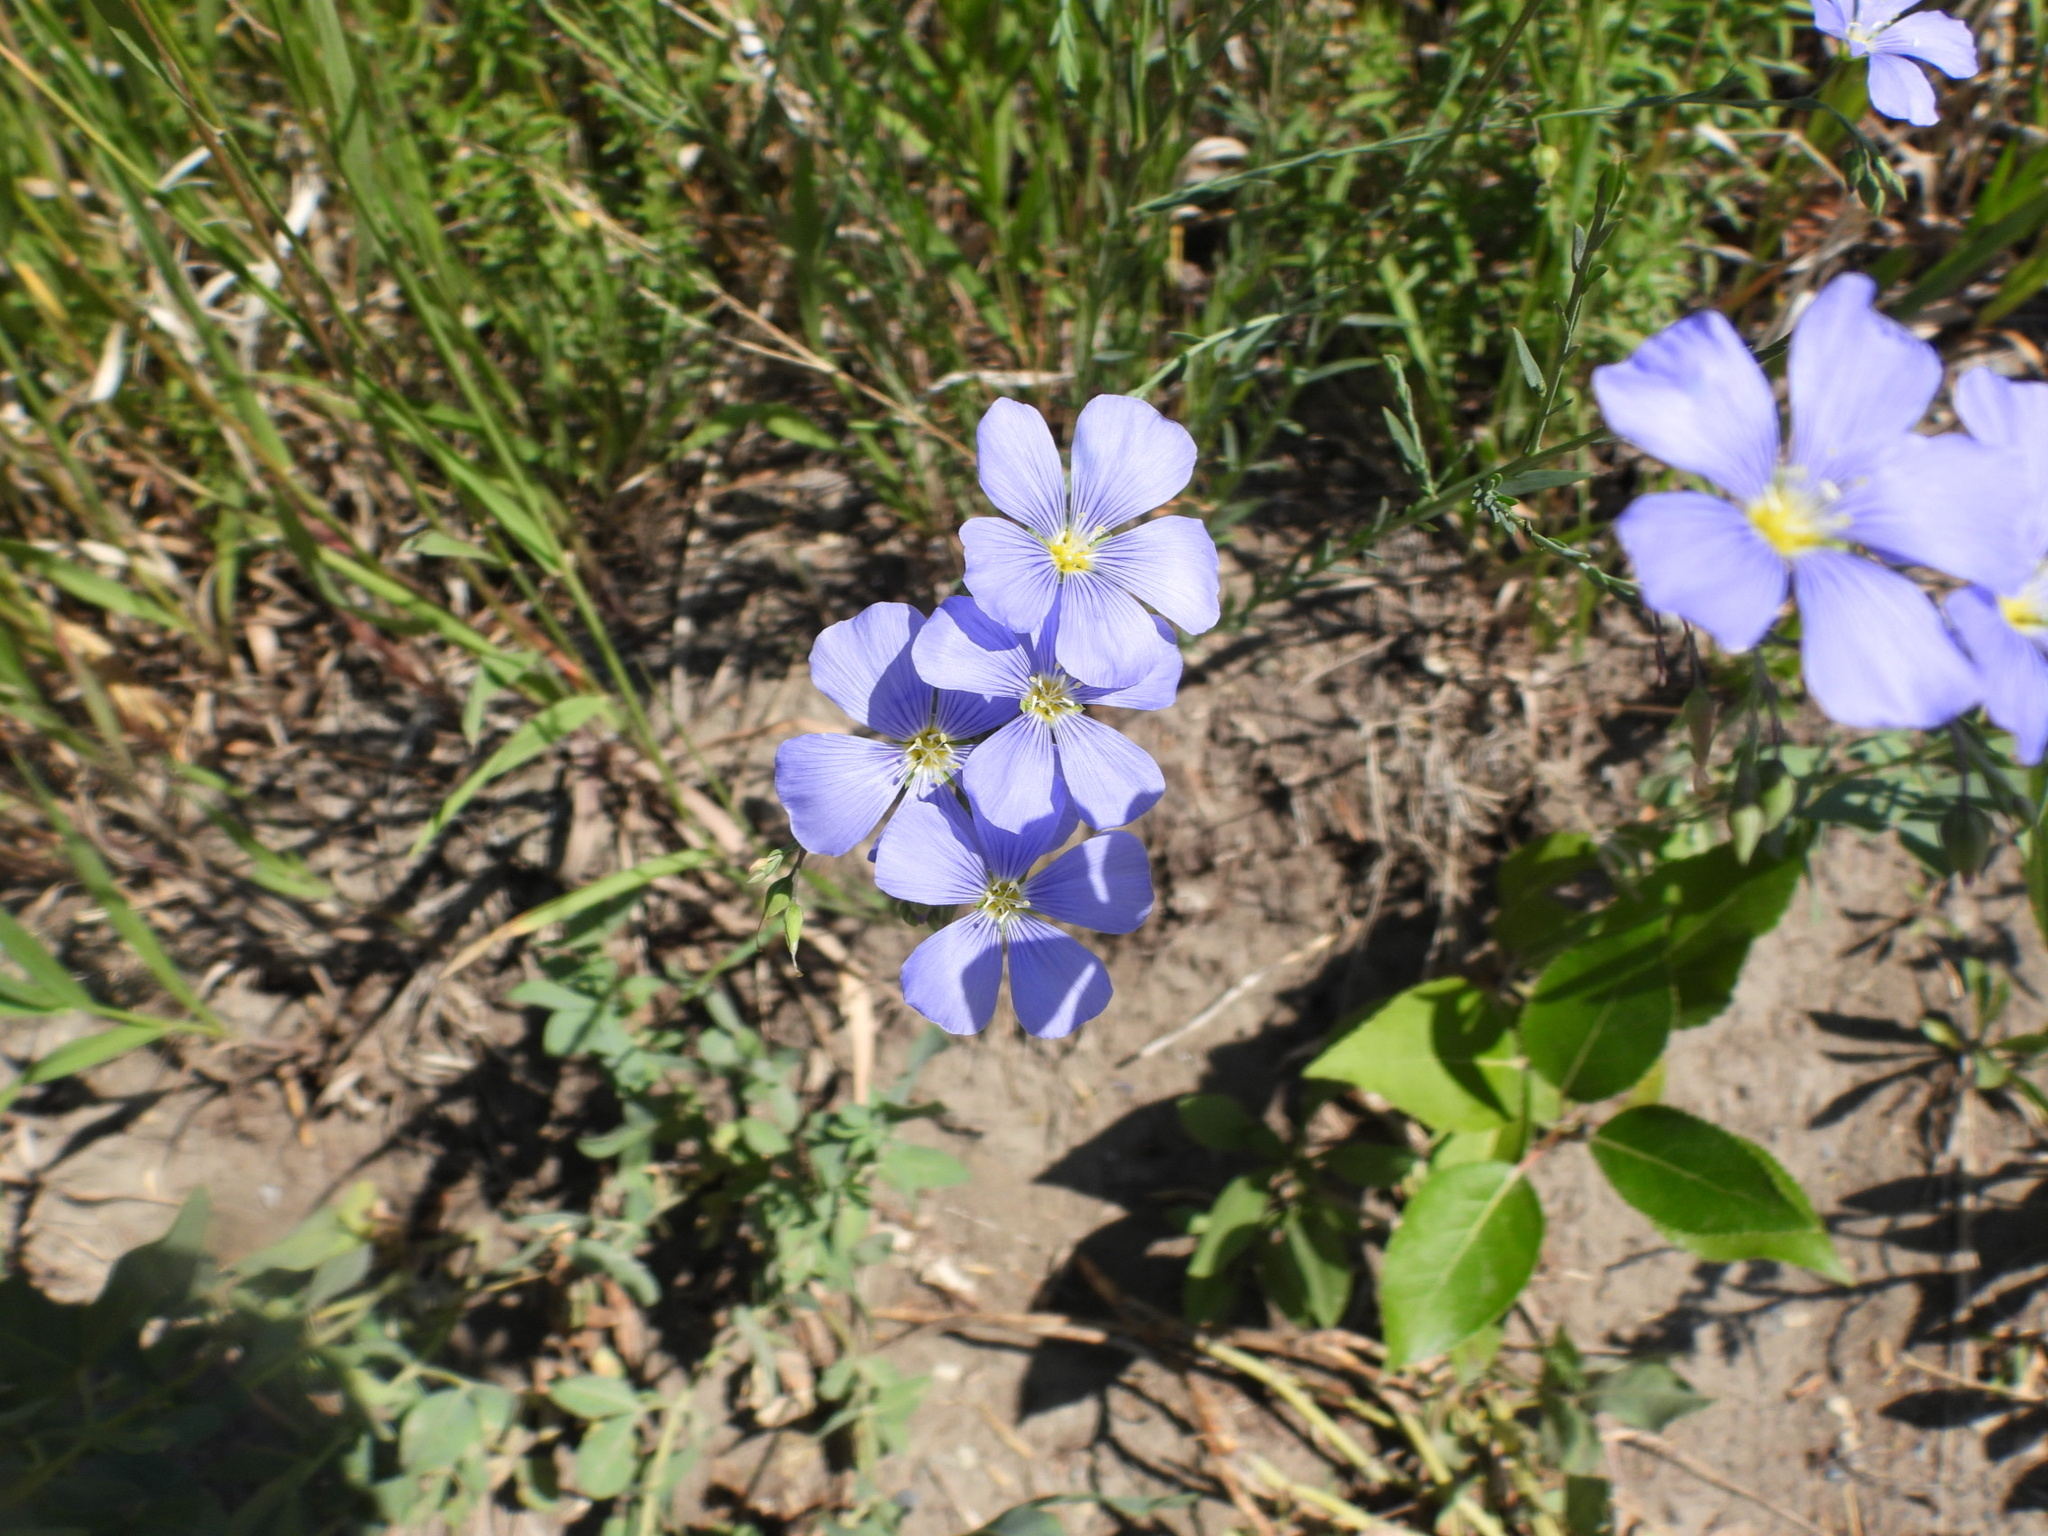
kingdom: Plantae
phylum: Tracheophyta
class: Magnoliopsida
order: Malpighiales
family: Linaceae
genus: Linum
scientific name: Linum lewisii
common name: Prairie flax
